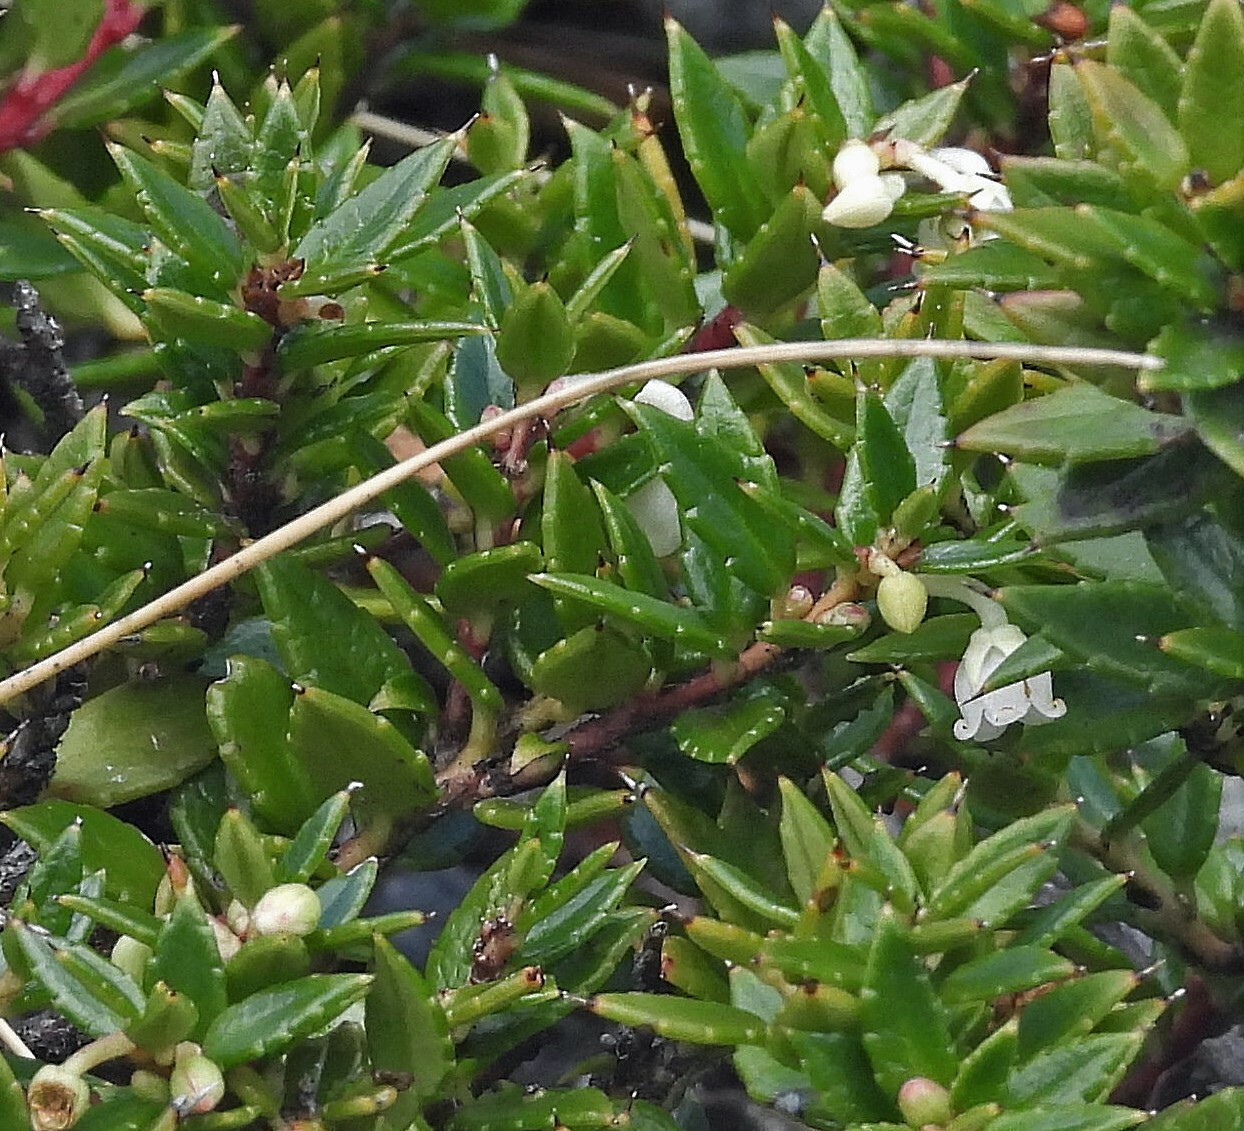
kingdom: Plantae
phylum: Tracheophyta
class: Magnoliopsida
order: Ericales
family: Ericaceae
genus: Gaultheria
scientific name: Gaultheria mucronata
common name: Prickly heath
